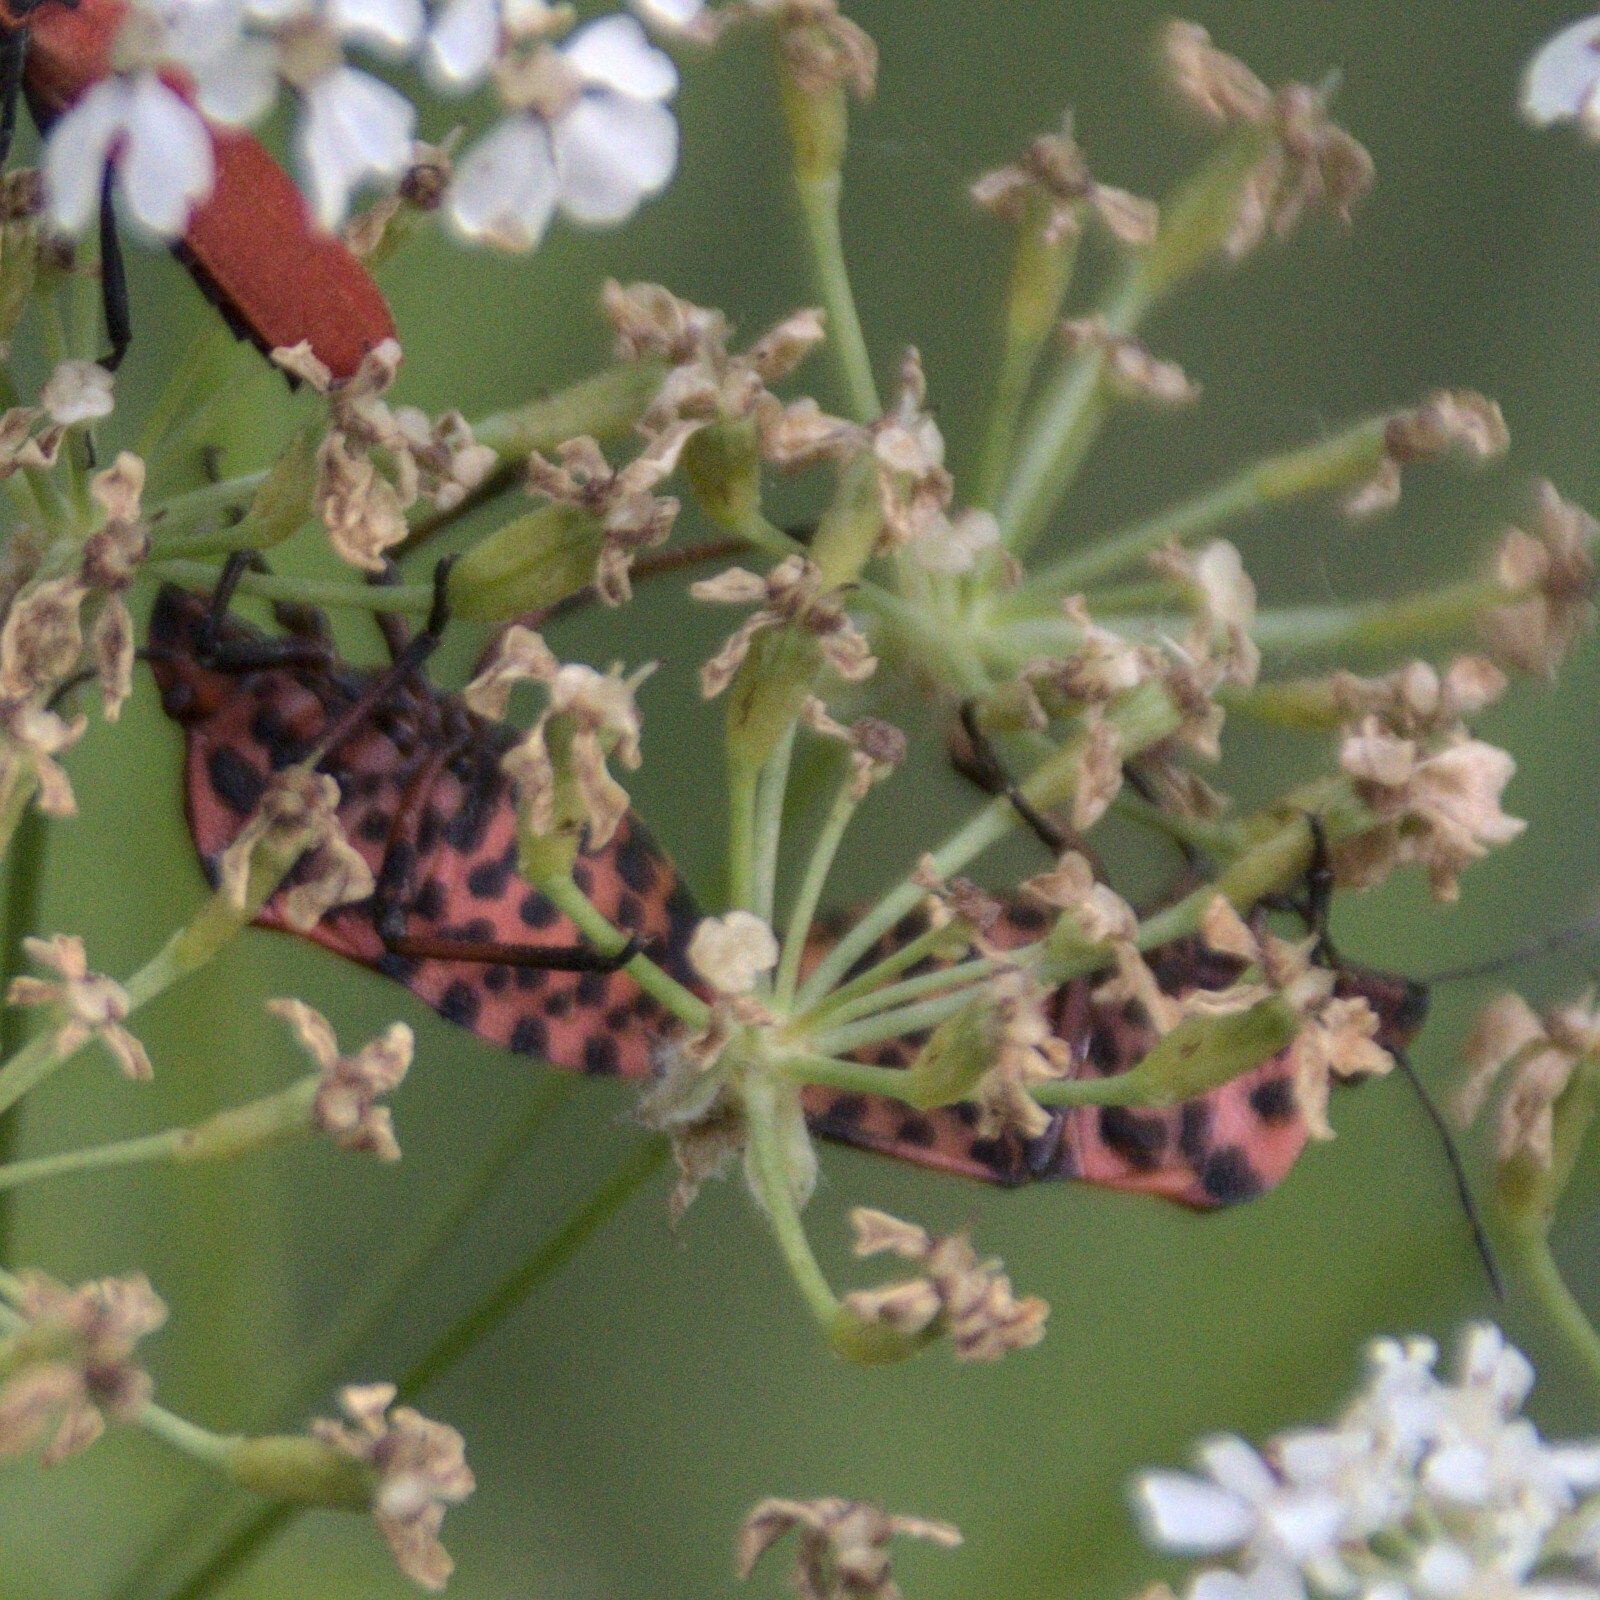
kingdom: Animalia
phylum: Arthropoda
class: Insecta
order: Hemiptera
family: Pentatomidae
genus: Graphosoma
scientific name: Graphosoma italicum
